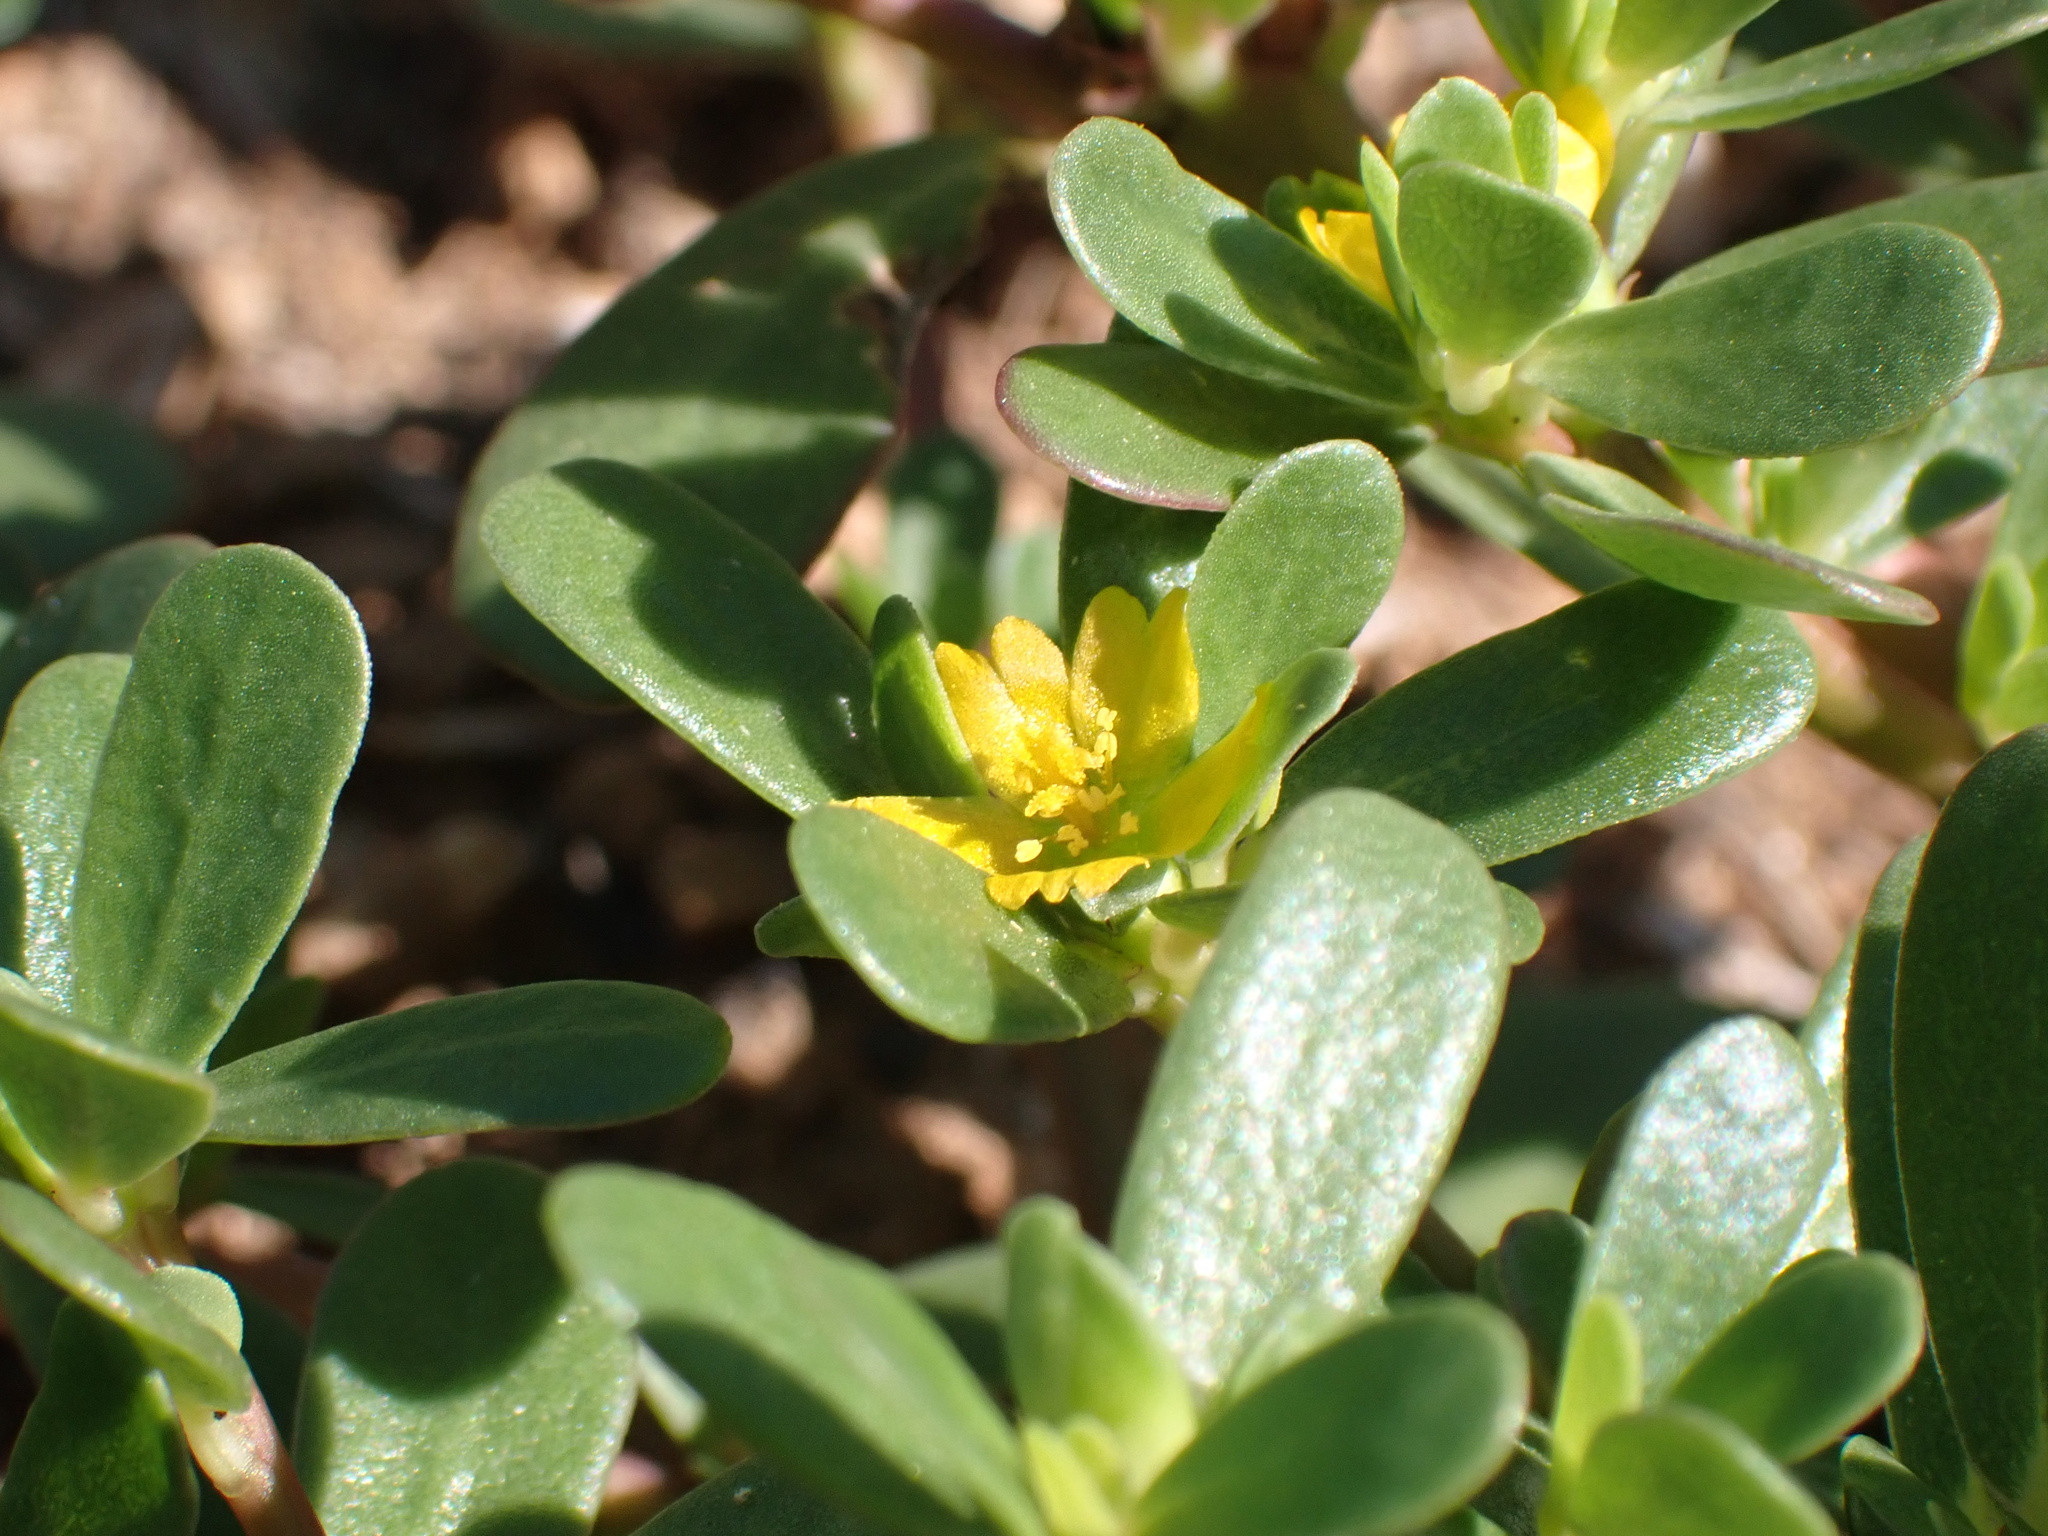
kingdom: Plantae
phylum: Tracheophyta
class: Magnoliopsida
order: Caryophyllales
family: Portulacaceae
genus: Portulaca
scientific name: Portulaca oleracea
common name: Common purslane
